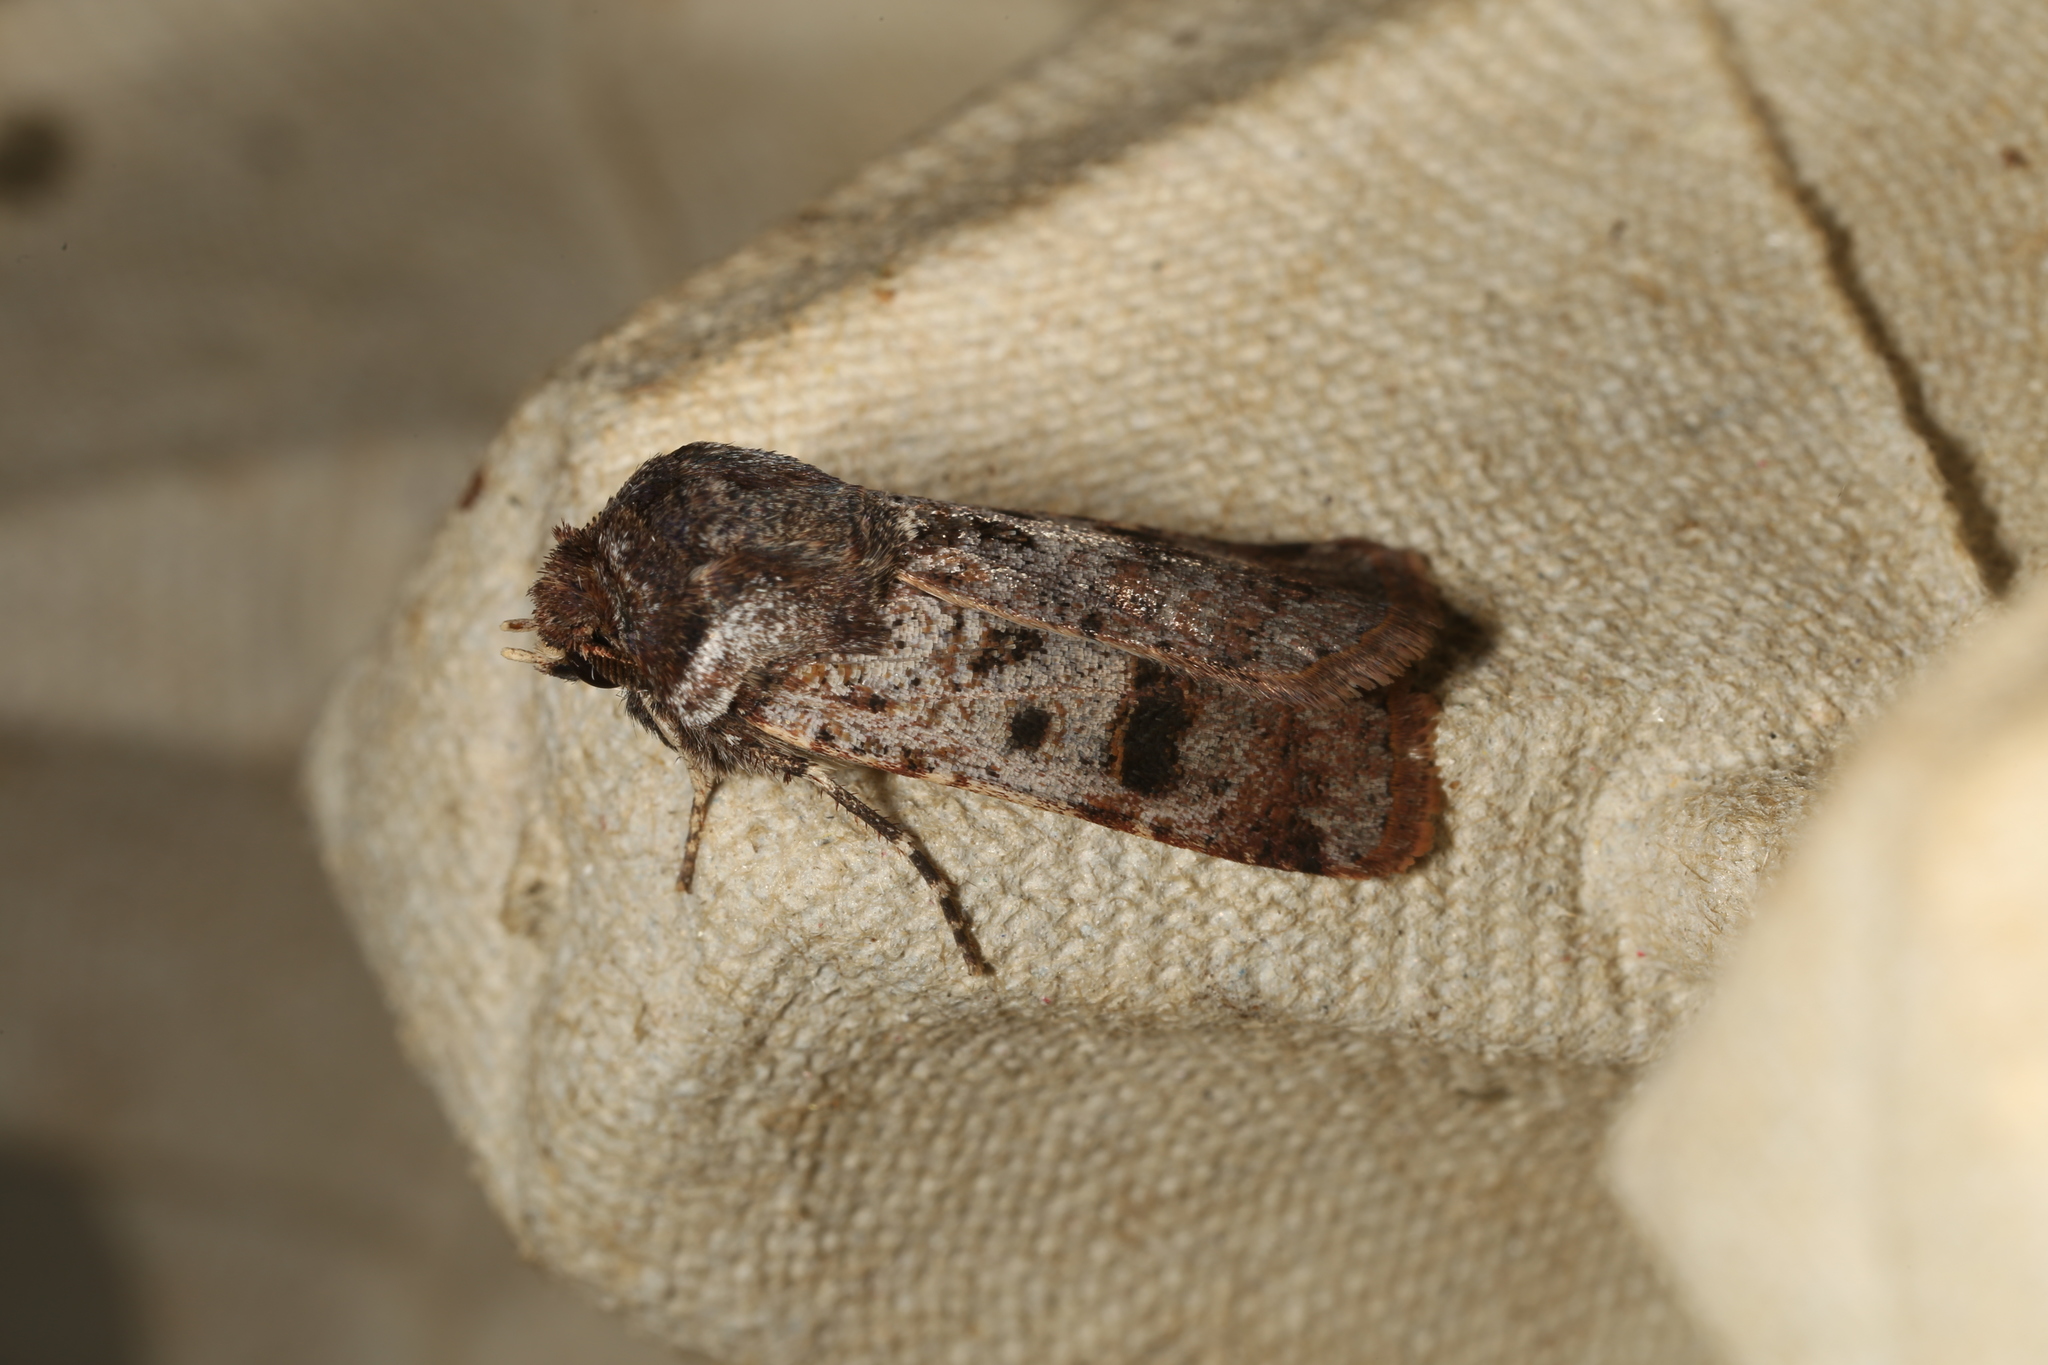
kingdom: Animalia
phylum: Arthropoda
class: Insecta
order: Lepidoptera
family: Noctuidae
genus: Agrotis
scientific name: Agrotis porphyricollis
